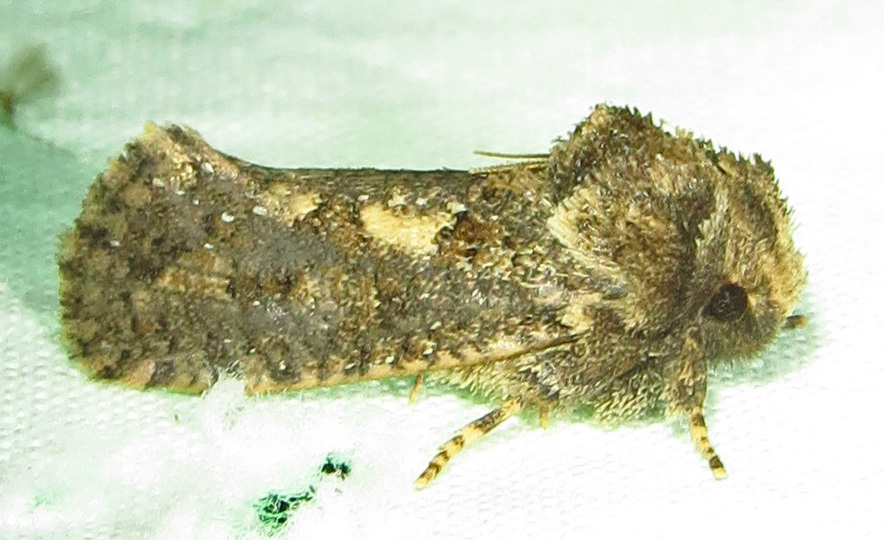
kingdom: Animalia
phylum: Arthropoda
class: Insecta
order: Lepidoptera
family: Tineidae
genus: Acrolophus
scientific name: Acrolophus arcanella
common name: Arcane grass tubeworm moth
